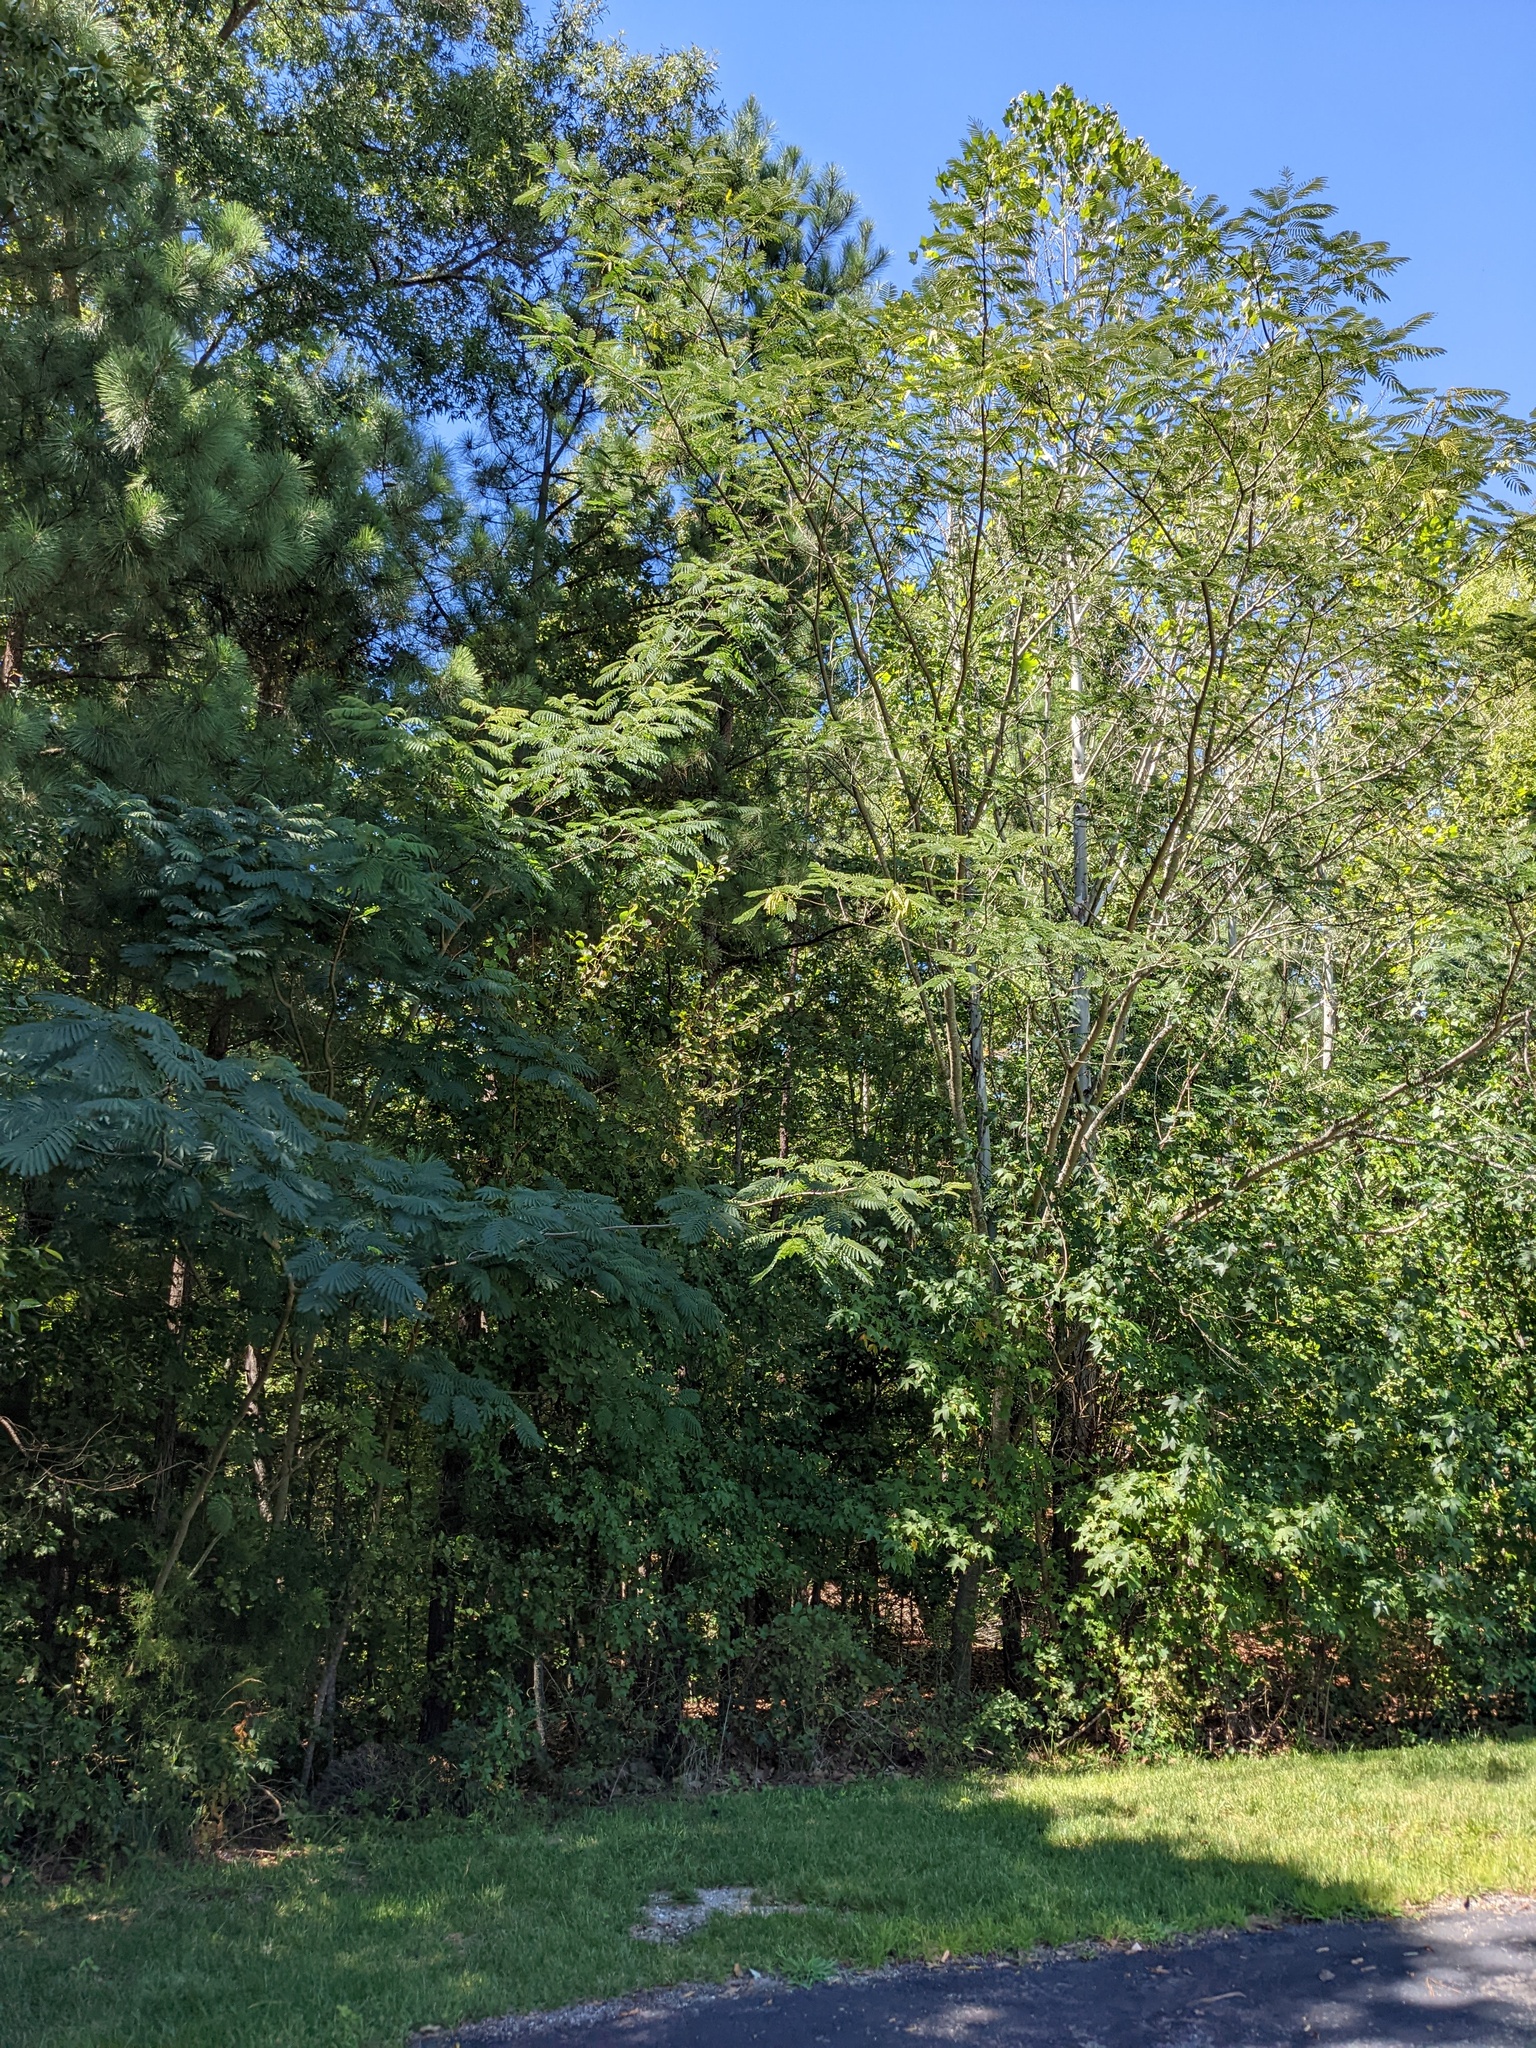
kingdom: Plantae
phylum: Tracheophyta
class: Magnoliopsida
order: Fabales
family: Fabaceae
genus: Albizia
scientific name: Albizia julibrissin
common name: Silktree
